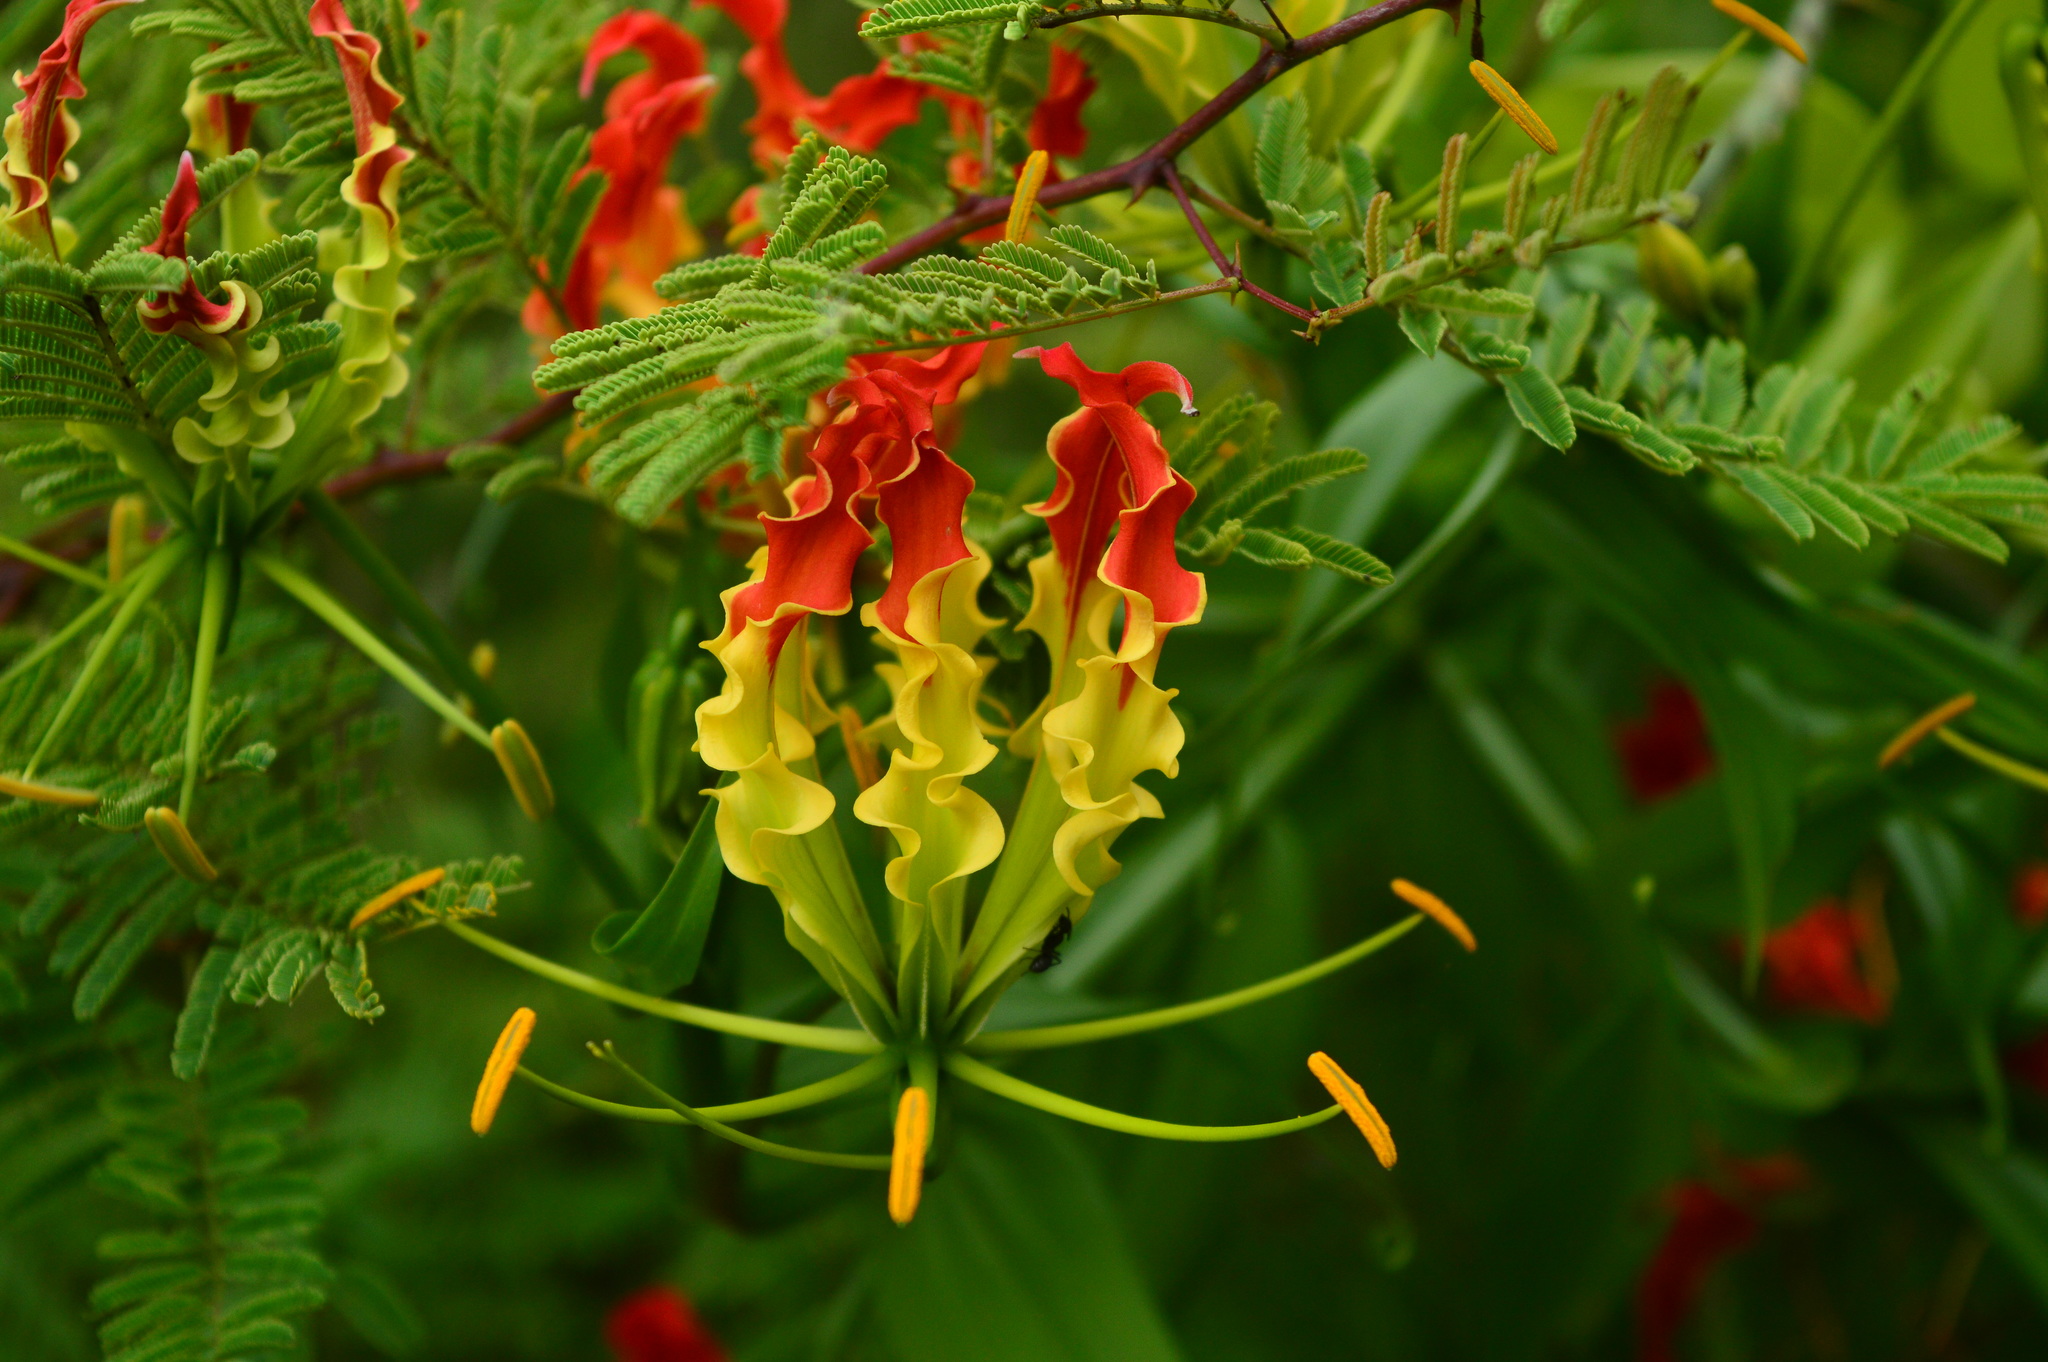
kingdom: Plantae
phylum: Tracheophyta
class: Liliopsida
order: Liliales
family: Colchicaceae
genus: Gloriosa
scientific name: Gloriosa superba
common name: Flame lily
